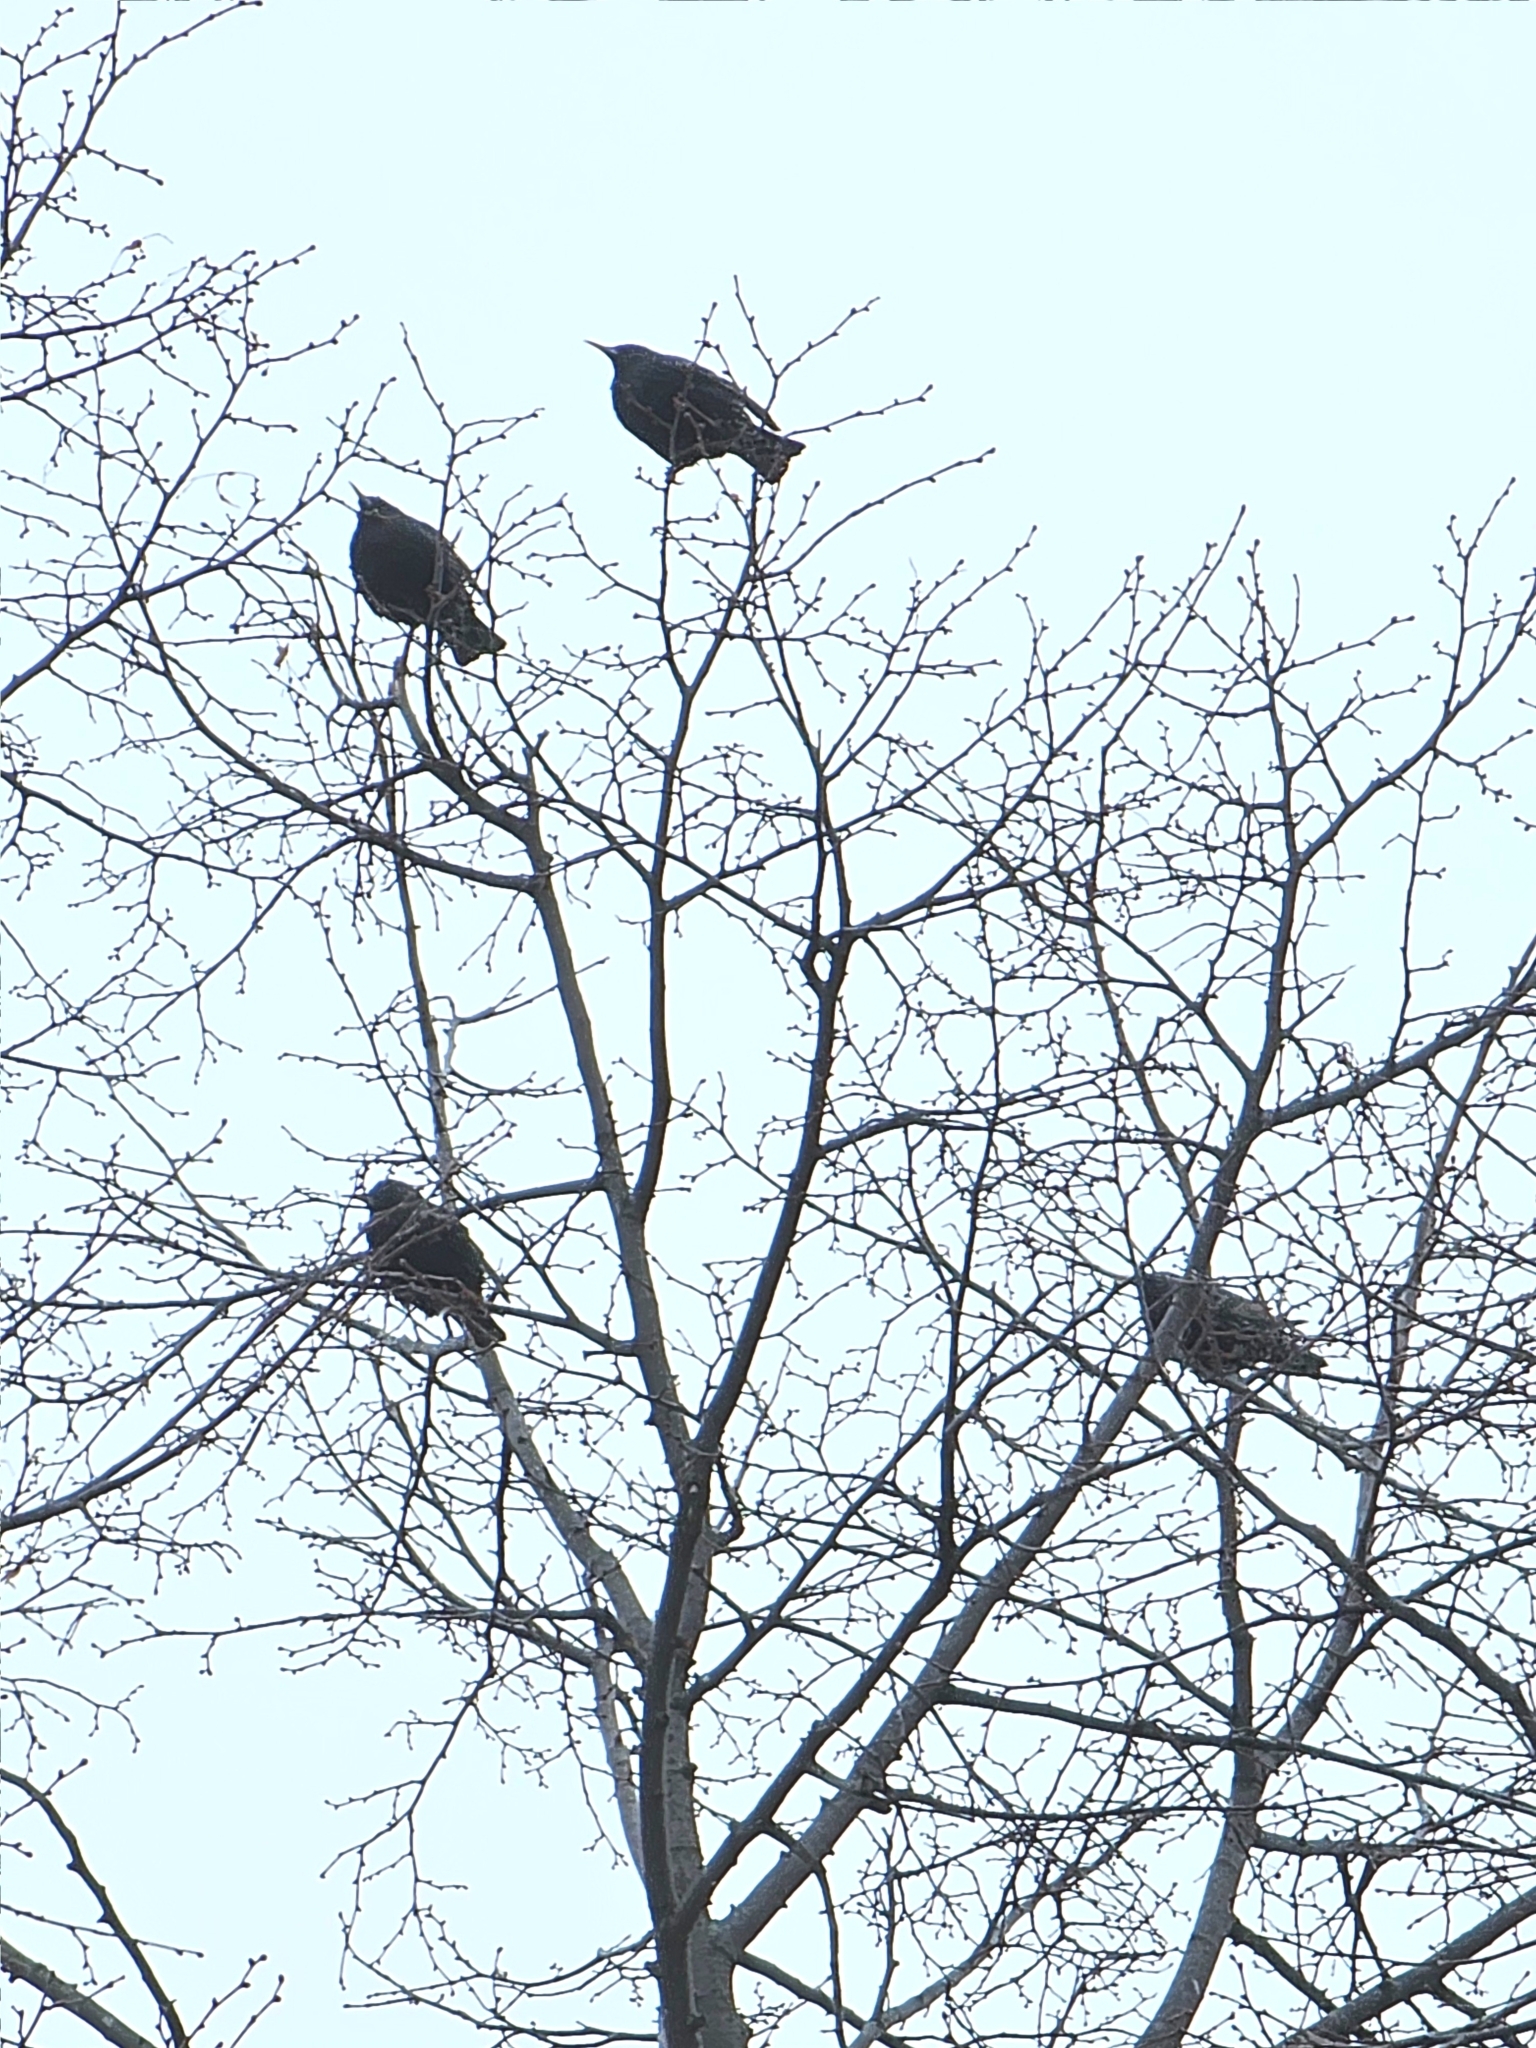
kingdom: Animalia
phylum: Chordata
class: Aves
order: Passeriformes
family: Sturnidae
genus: Sturnus
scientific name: Sturnus vulgaris
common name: Common starling
